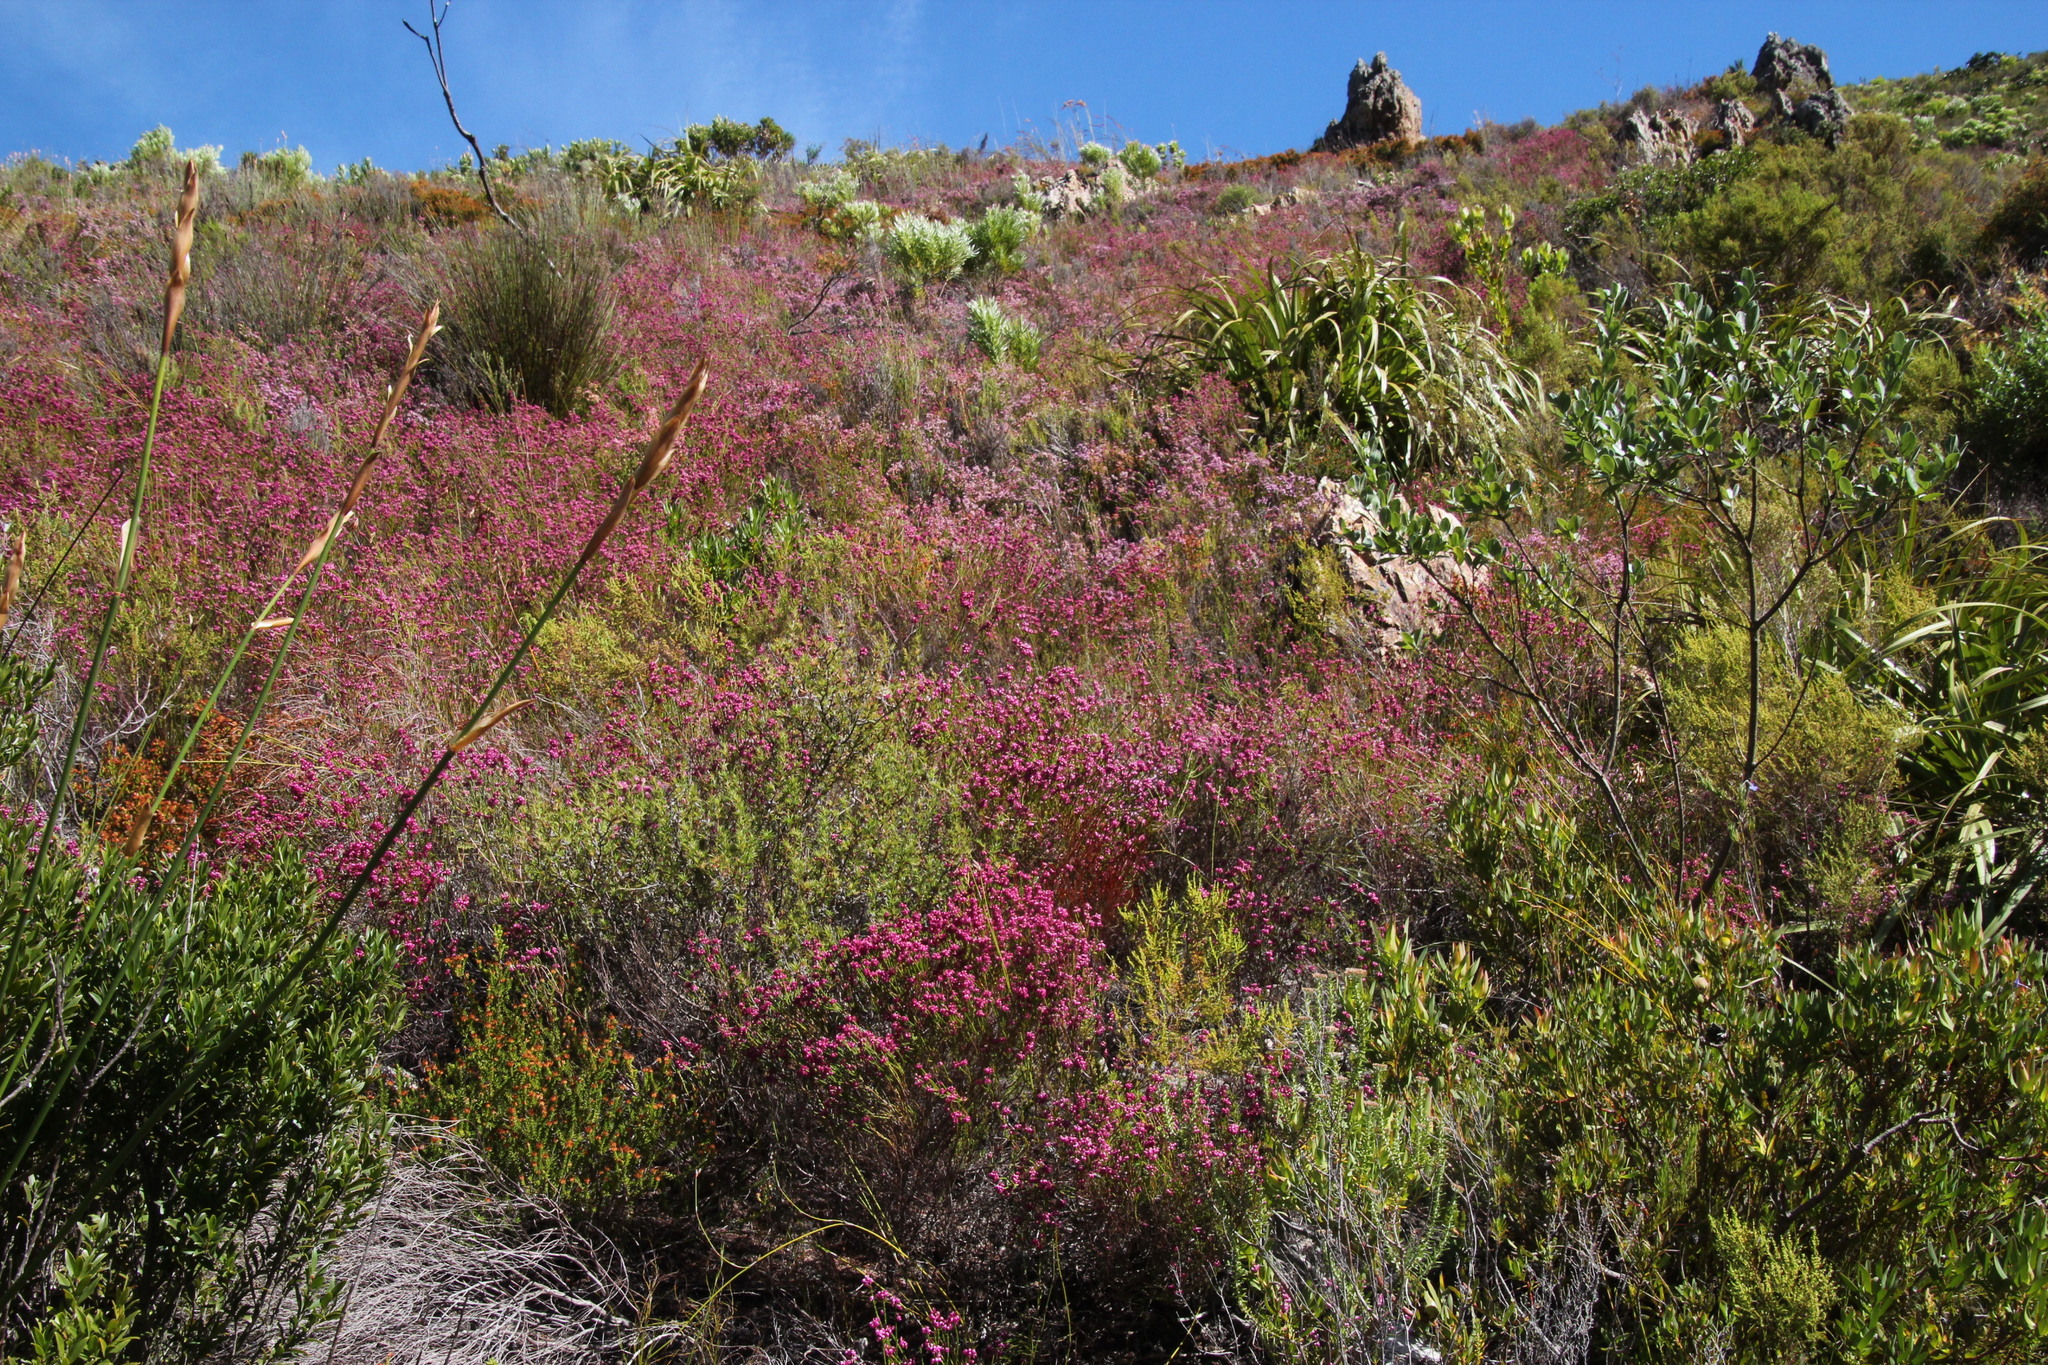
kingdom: Plantae
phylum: Tracheophyta
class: Magnoliopsida
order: Ericales
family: Ericaceae
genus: Erica
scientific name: Erica rhopalantha
